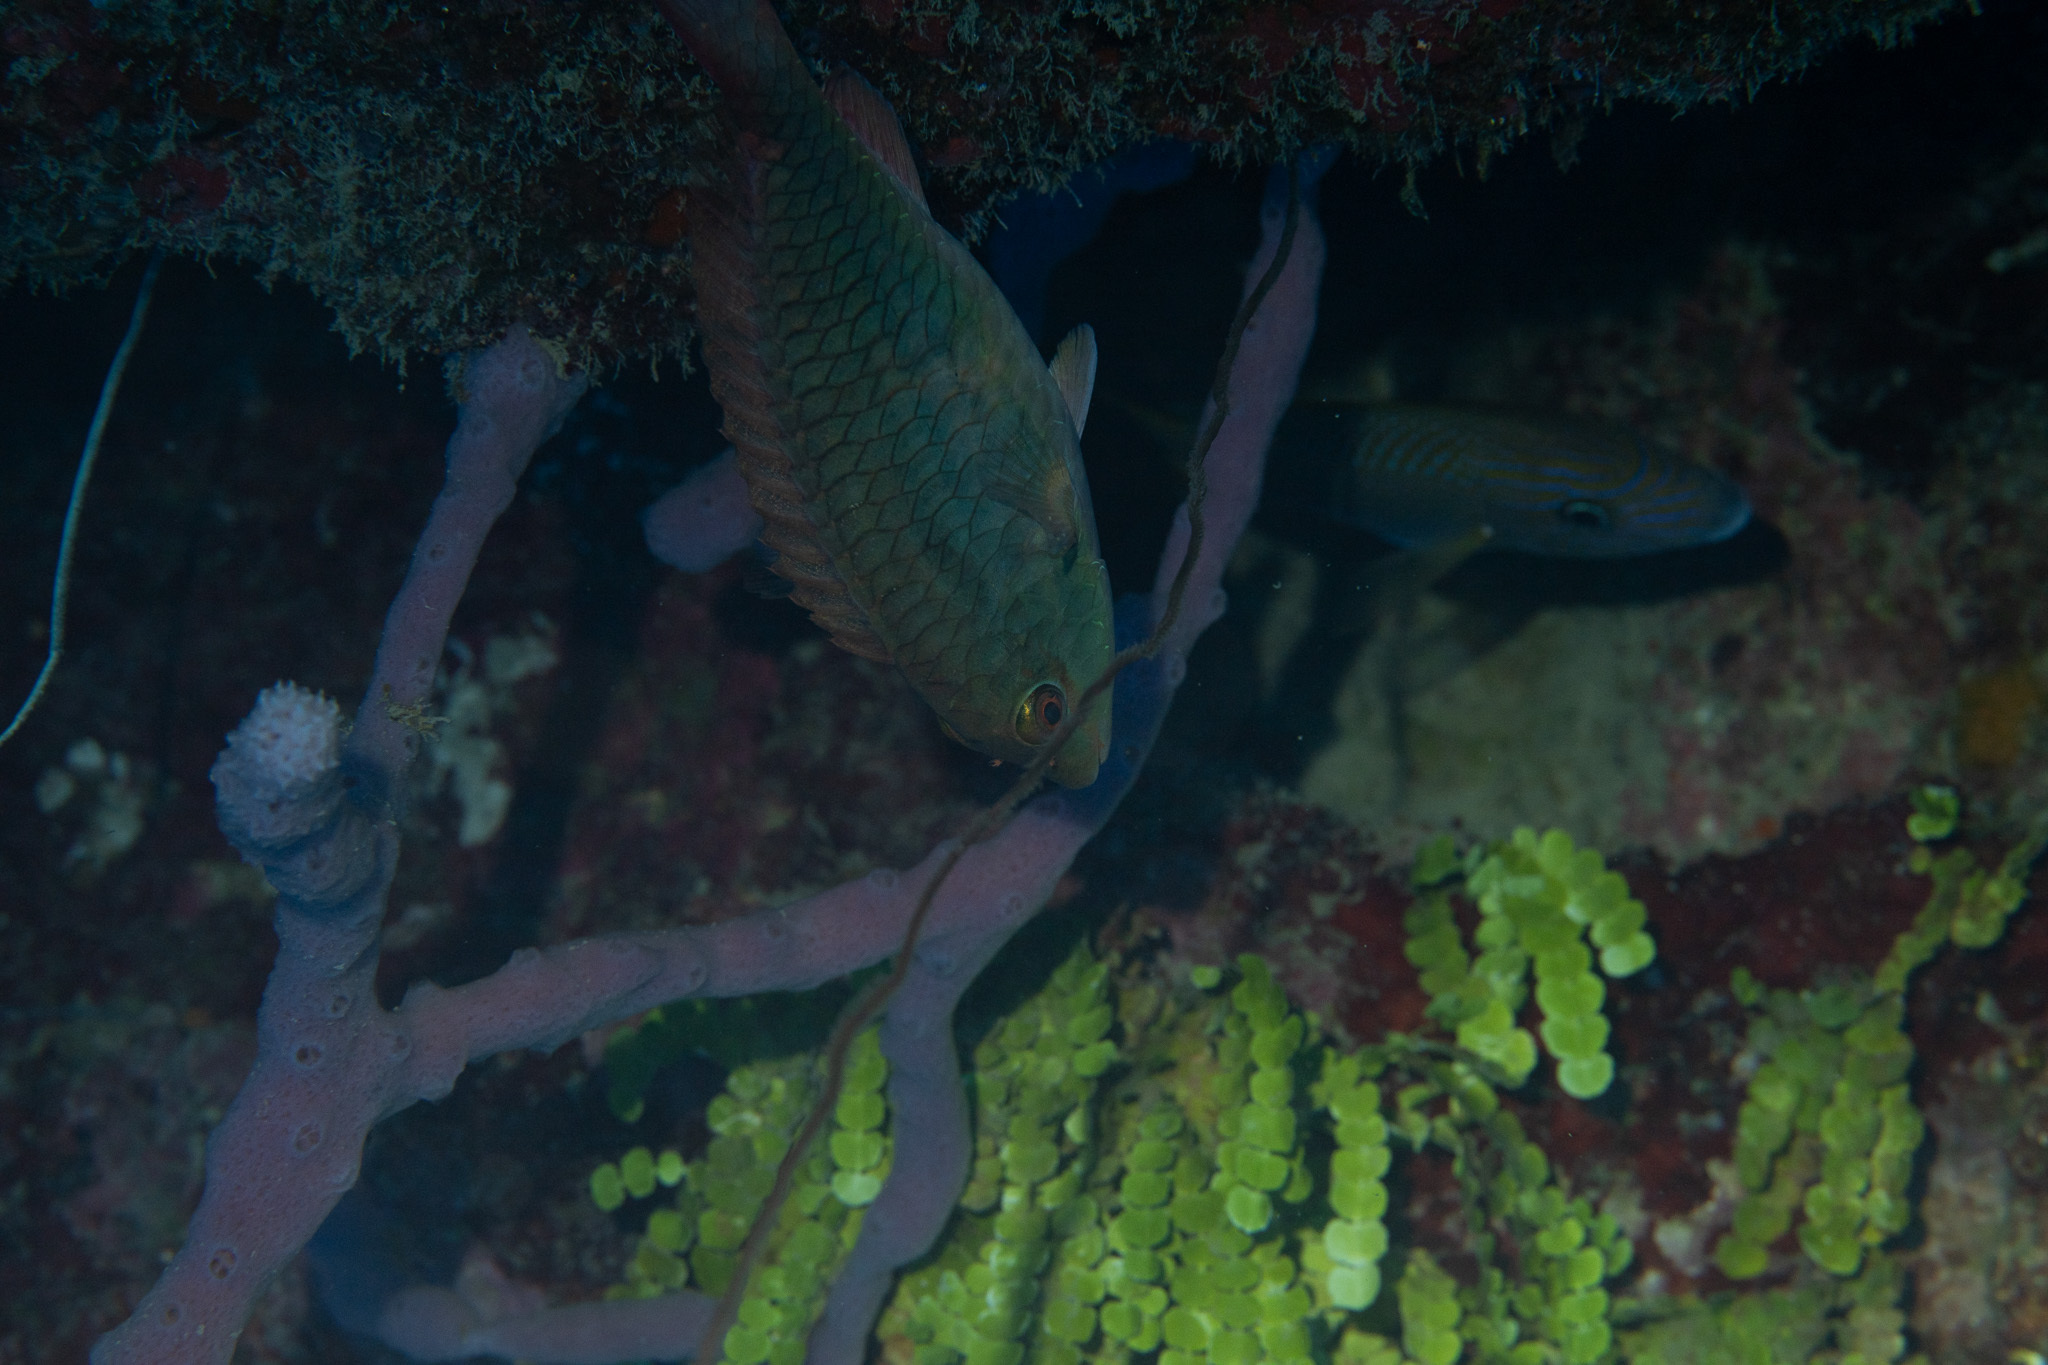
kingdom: Animalia
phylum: Chordata
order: Perciformes
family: Scaridae
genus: Sparisoma
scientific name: Sparisoma aurofrenatum
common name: Redband parrotfish
